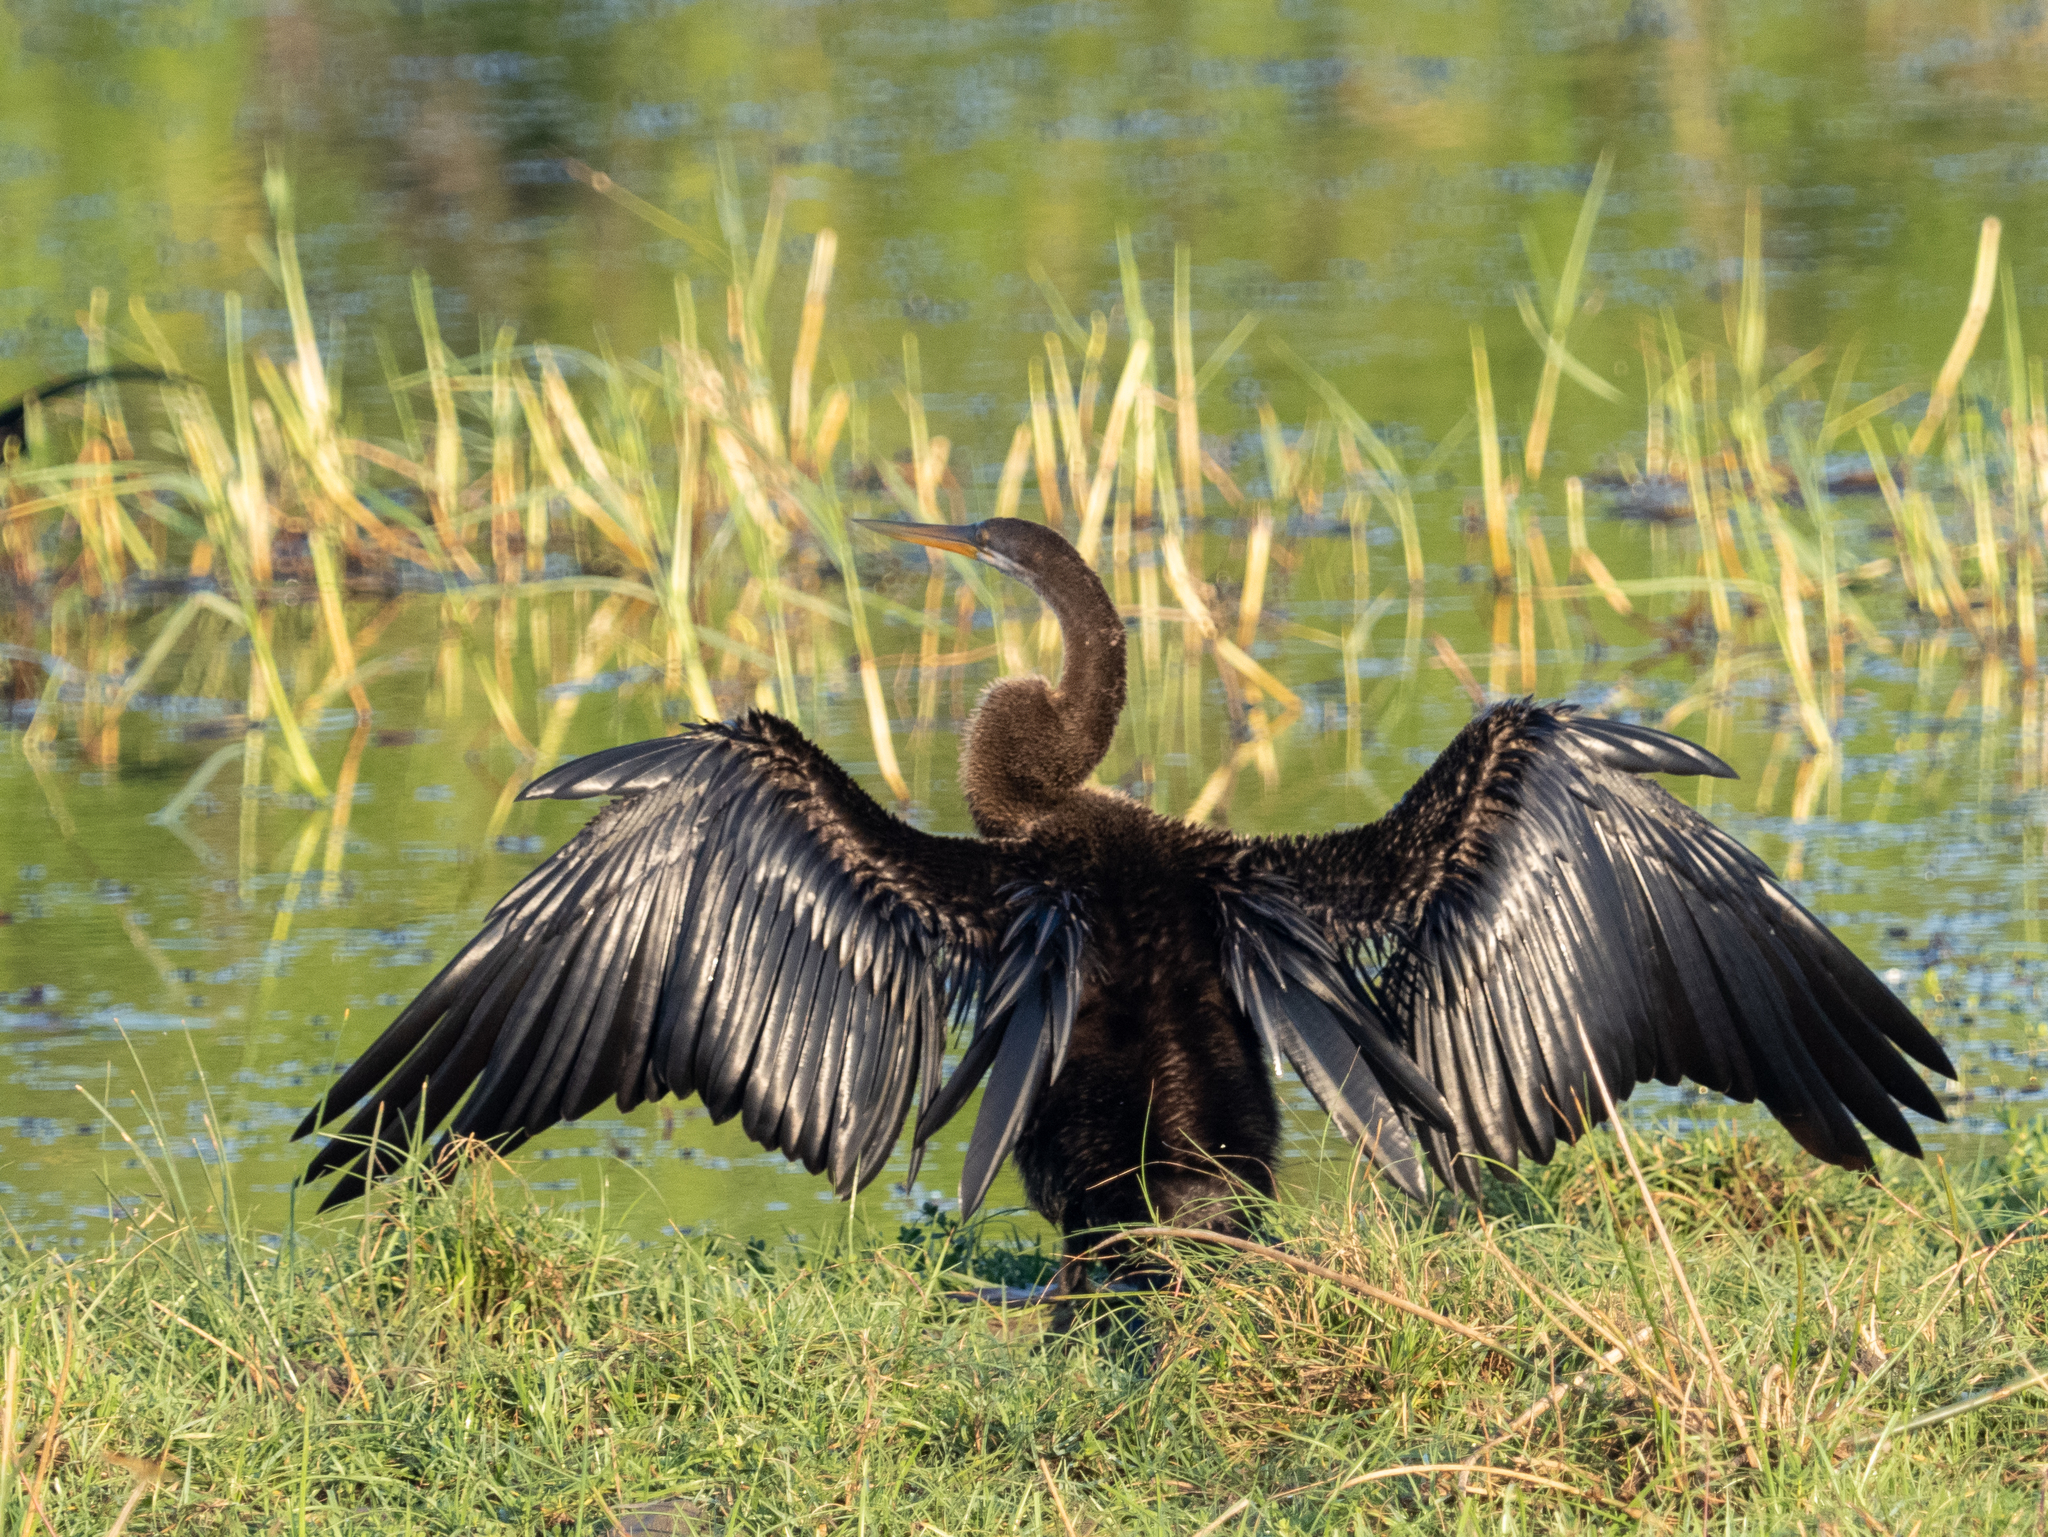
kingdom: Animalia
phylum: Chordata
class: Aves
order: Suliformes
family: Anhingidae
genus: Anhinga
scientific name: Anhinga melanogaster
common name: Oriental darter
